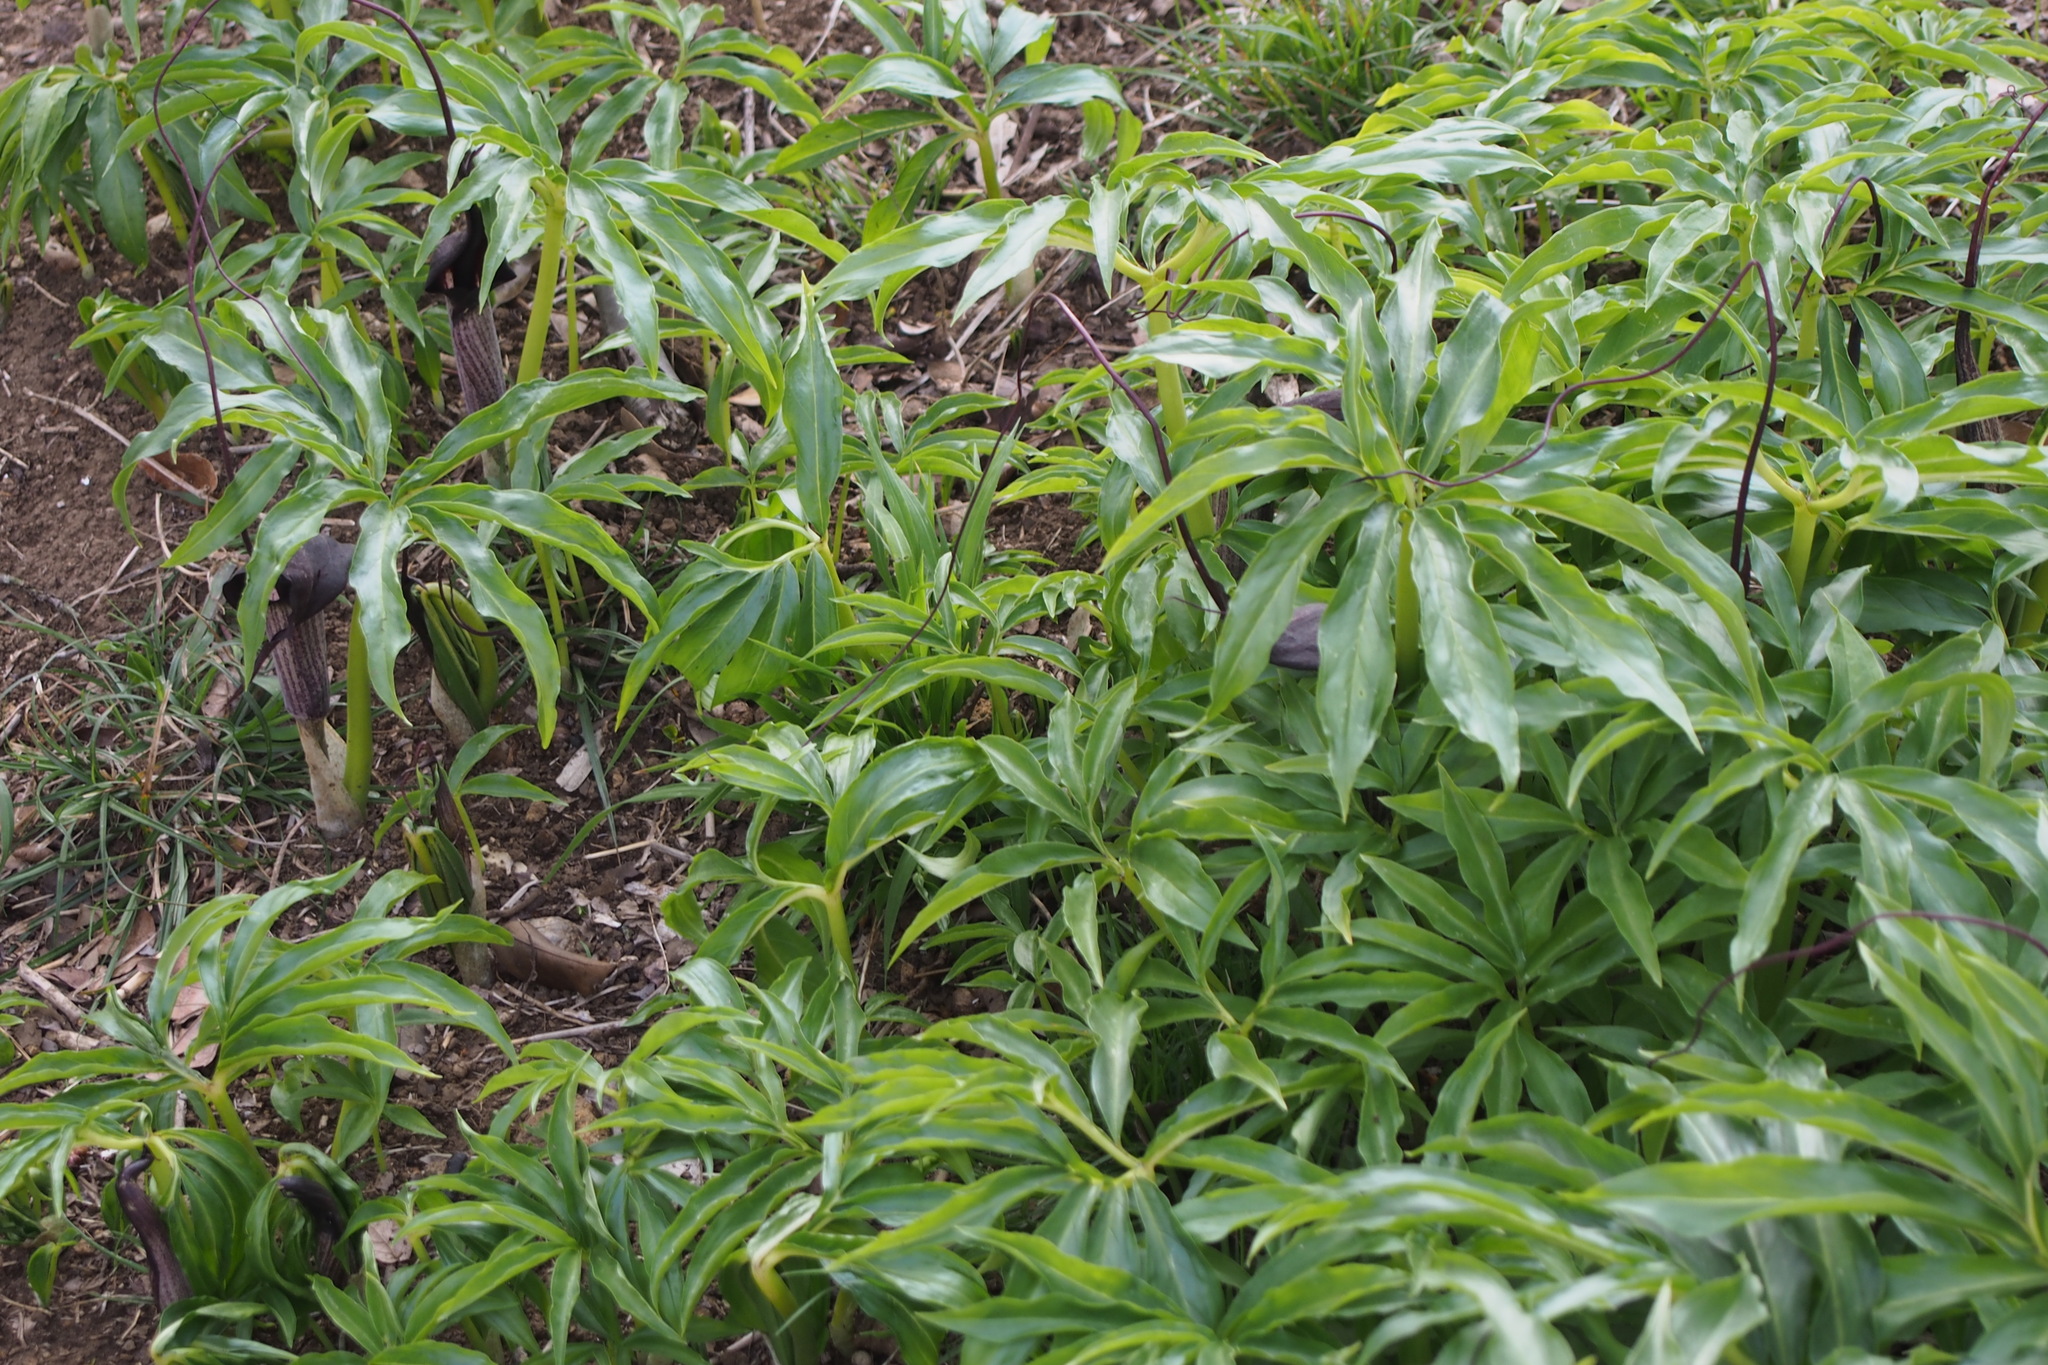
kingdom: Plantae
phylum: Tracheophyta
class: Liliopsida
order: Alismatales
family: Araceae
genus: Arisaema
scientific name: Arisaema thunbergii
